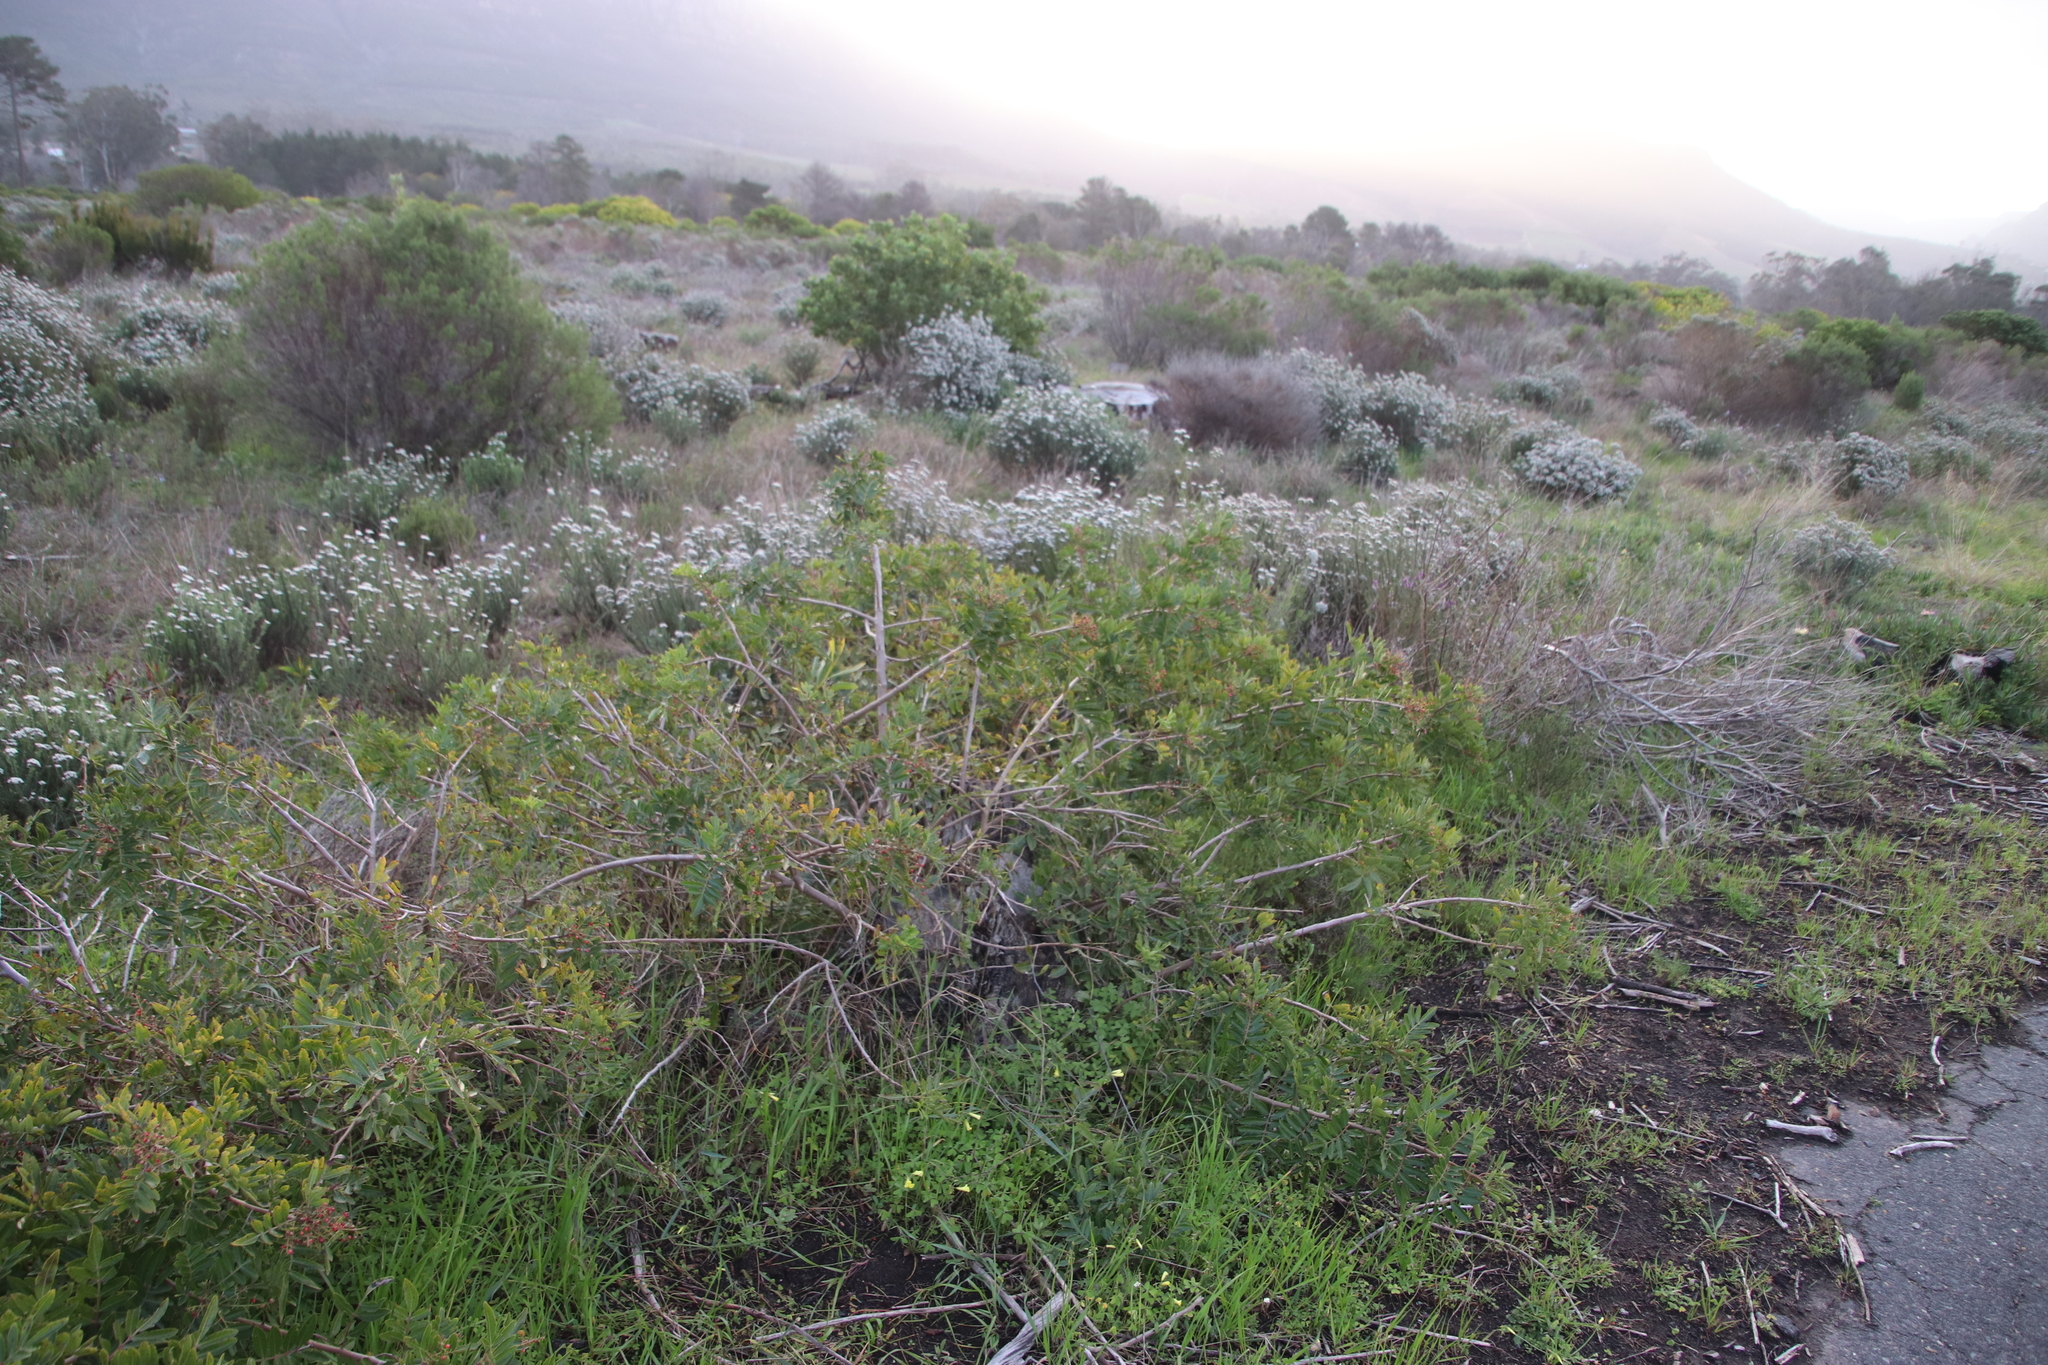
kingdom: Plantae
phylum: Tracheophyta
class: Magnoliopsida
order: Sapindales
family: Anacardiaceae
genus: Schinus
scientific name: Schinus terebinthifolia
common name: Brazilian peppertree
